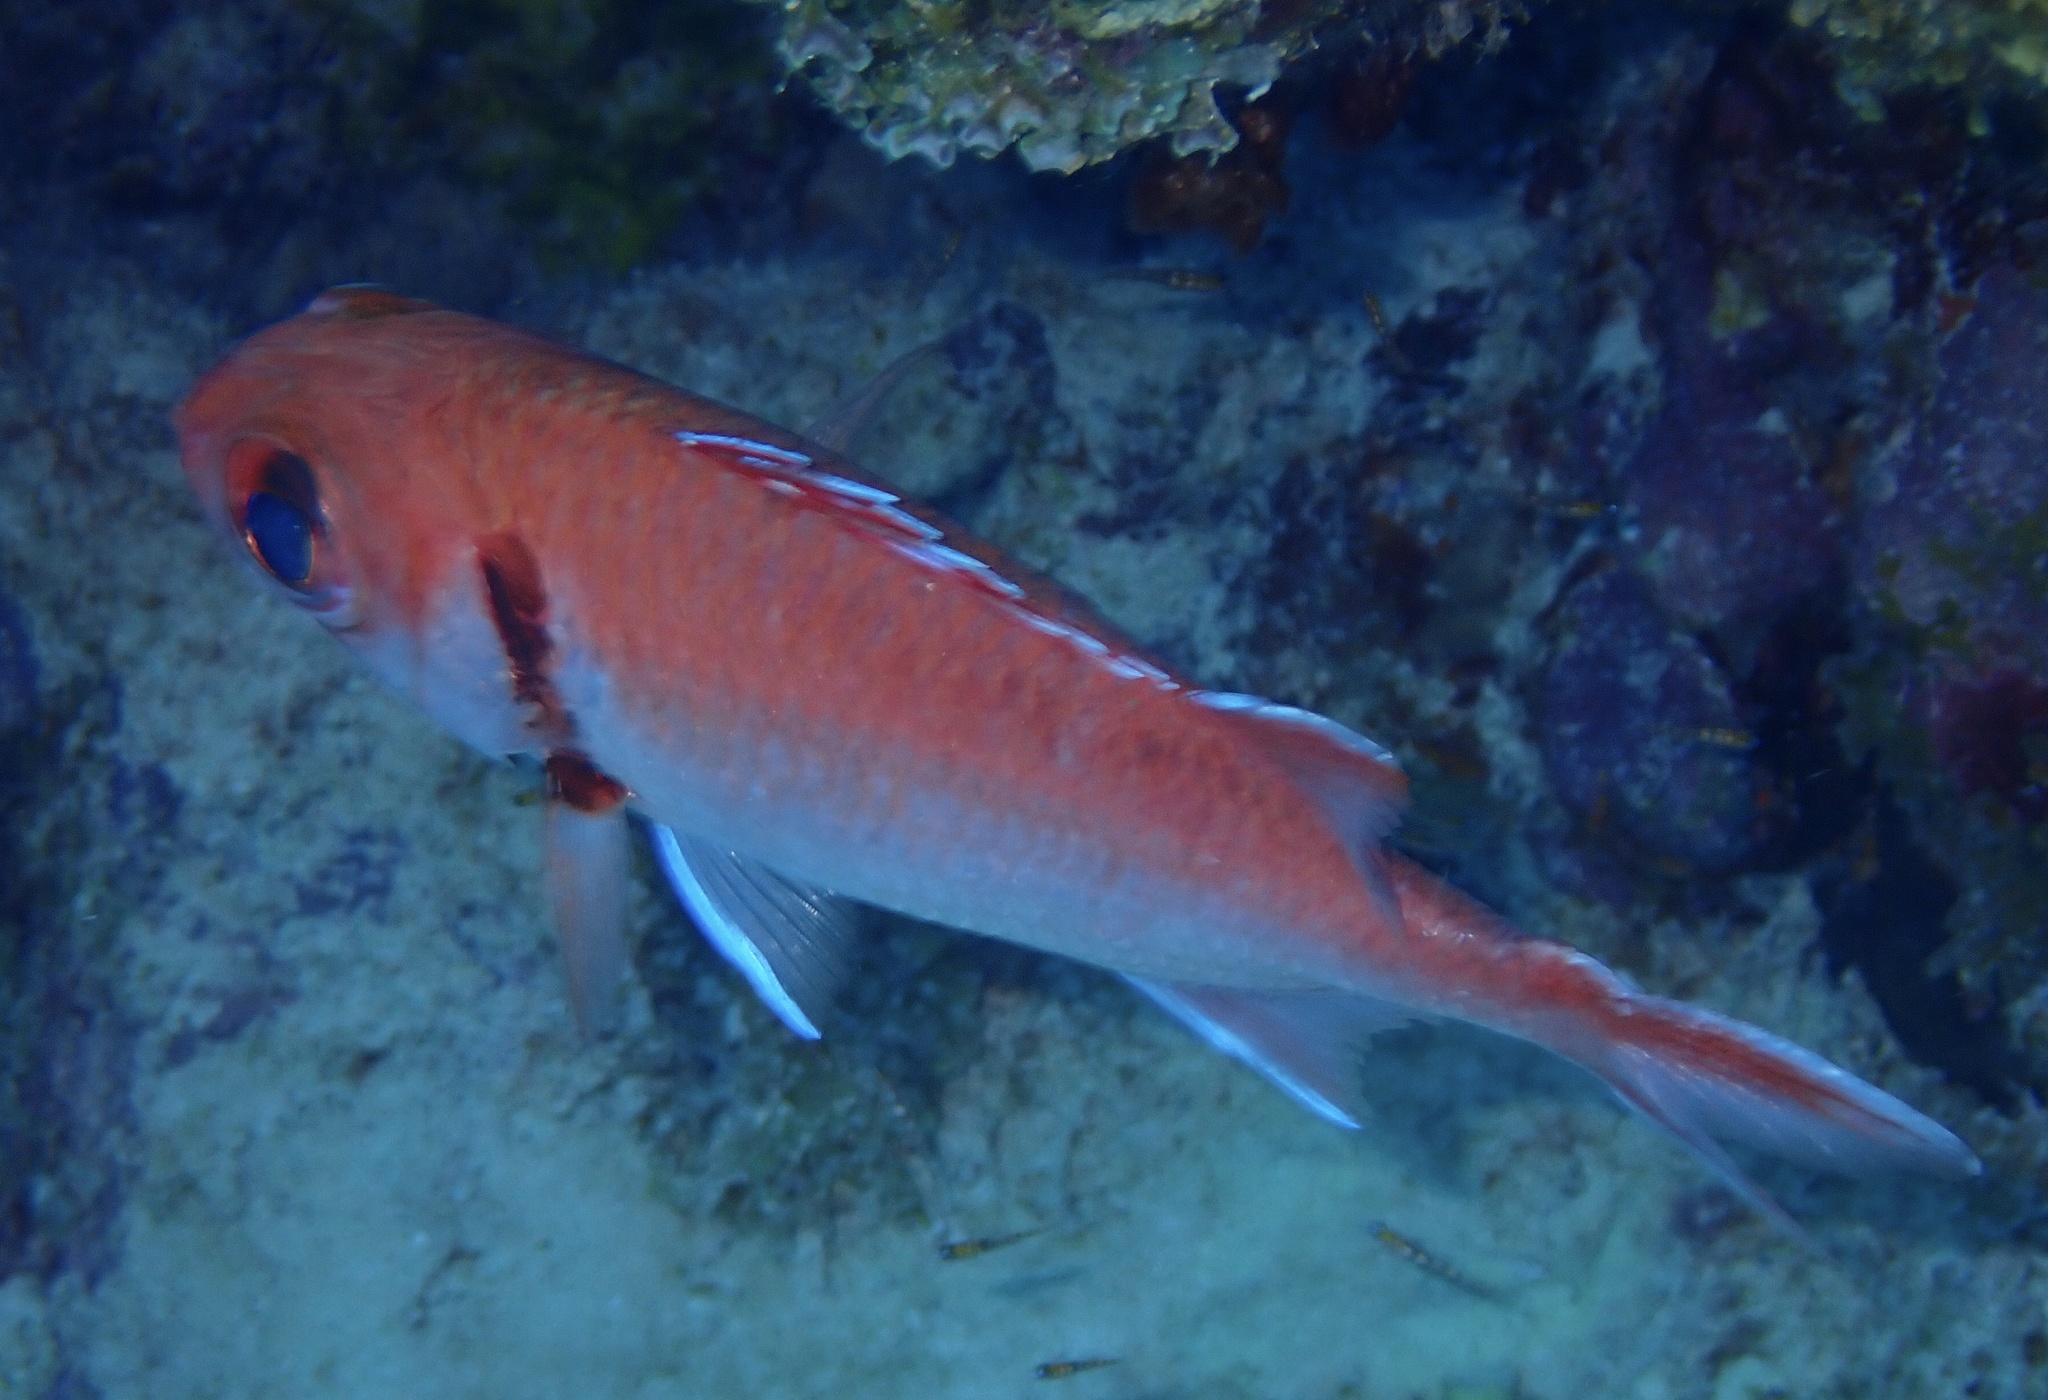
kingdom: Animalia
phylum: Chordata
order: Beryciformes
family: Holocentridae
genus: Myripristis
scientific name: Myripristis jacobus
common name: Blackbar soldierfish
